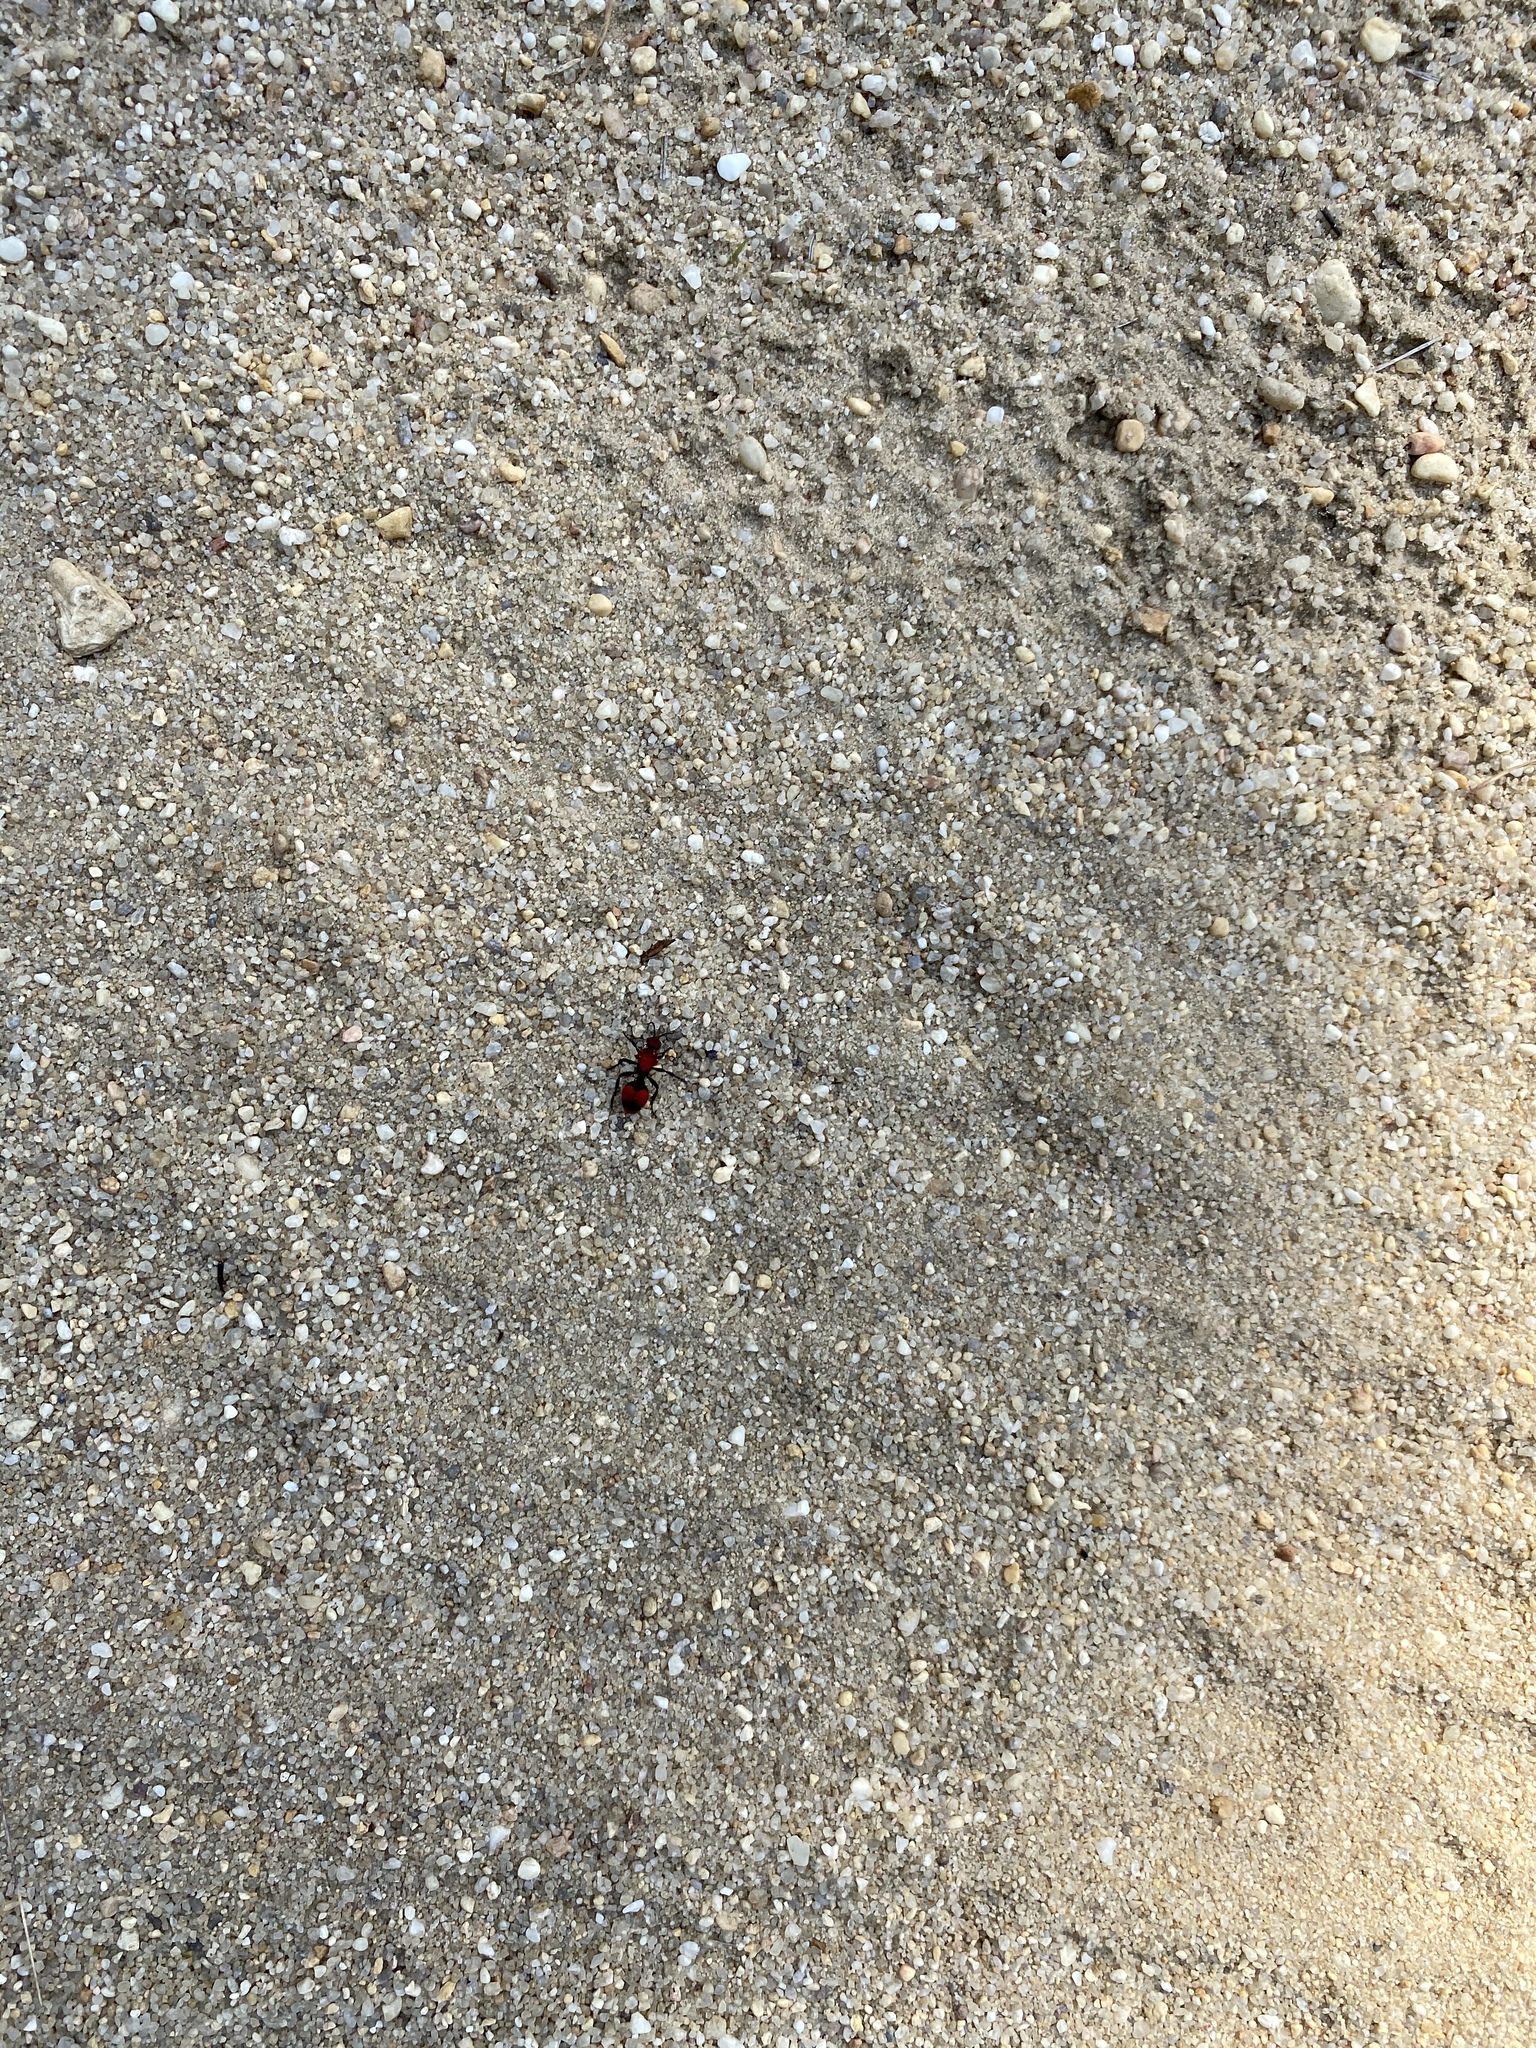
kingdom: Animalia
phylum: Arthropoda
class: Insecta
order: Hymenoptera
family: Mutillidae
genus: Dasymutilla
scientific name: Dasymutilla occidentalis
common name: Common eastern velvet ant
